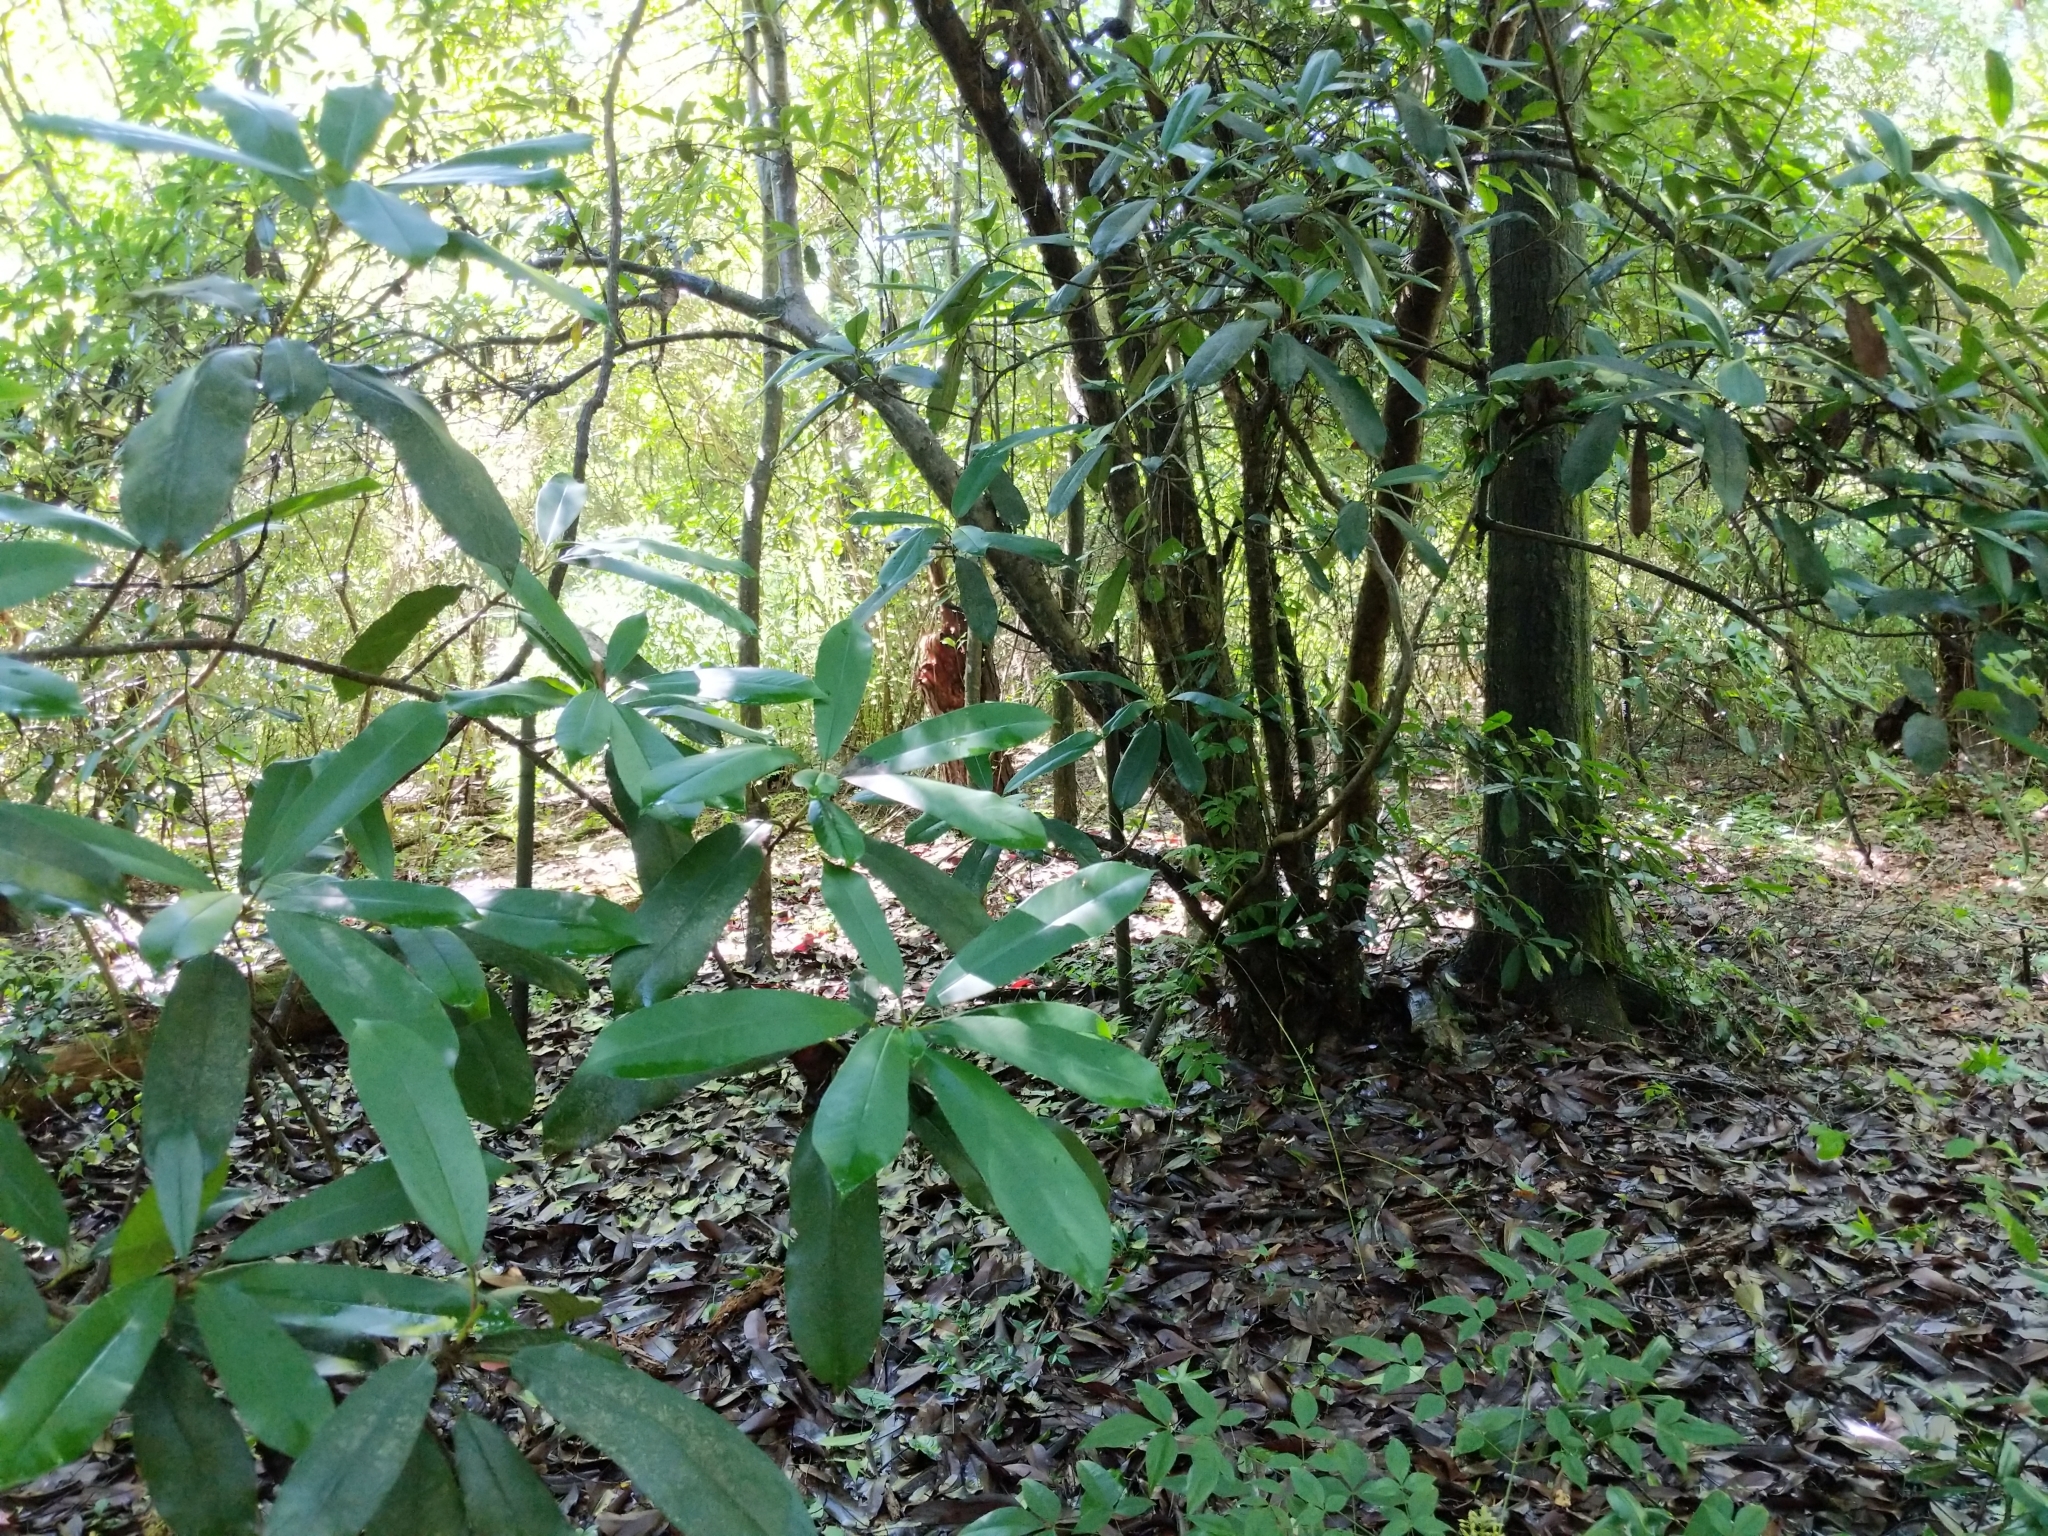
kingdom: Plantae
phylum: Tracheophyta
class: Magnoliopsida
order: Magnoliales
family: Magnoliaceae
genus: Magnolia
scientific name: Magnolia virginiana
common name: Swamp bay
